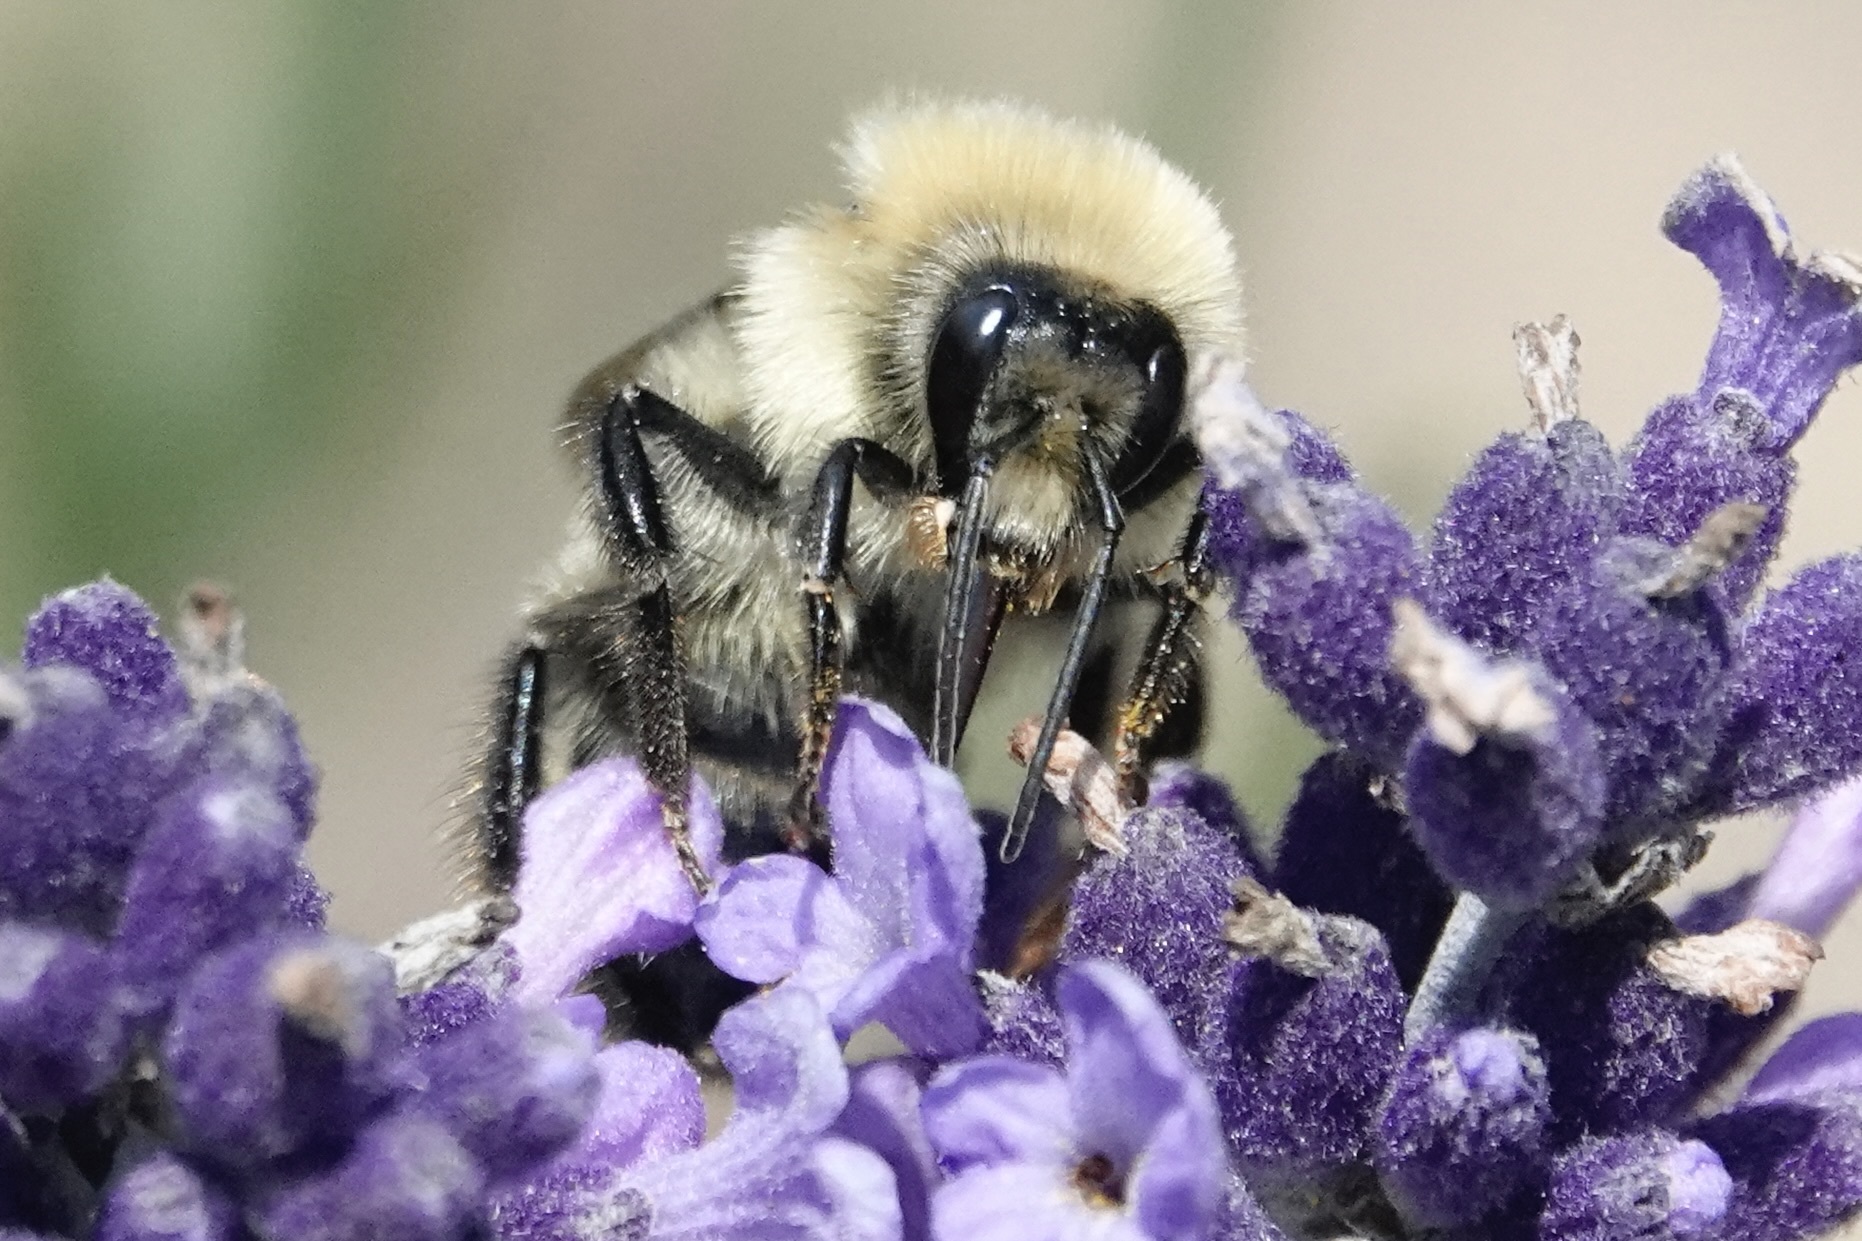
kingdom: Animalia
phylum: Arthropoda
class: Insecta
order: Hymenoptera
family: Apidae
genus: Bombus
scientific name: Bombus bimaculatus
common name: Two-spotted bumble bee
